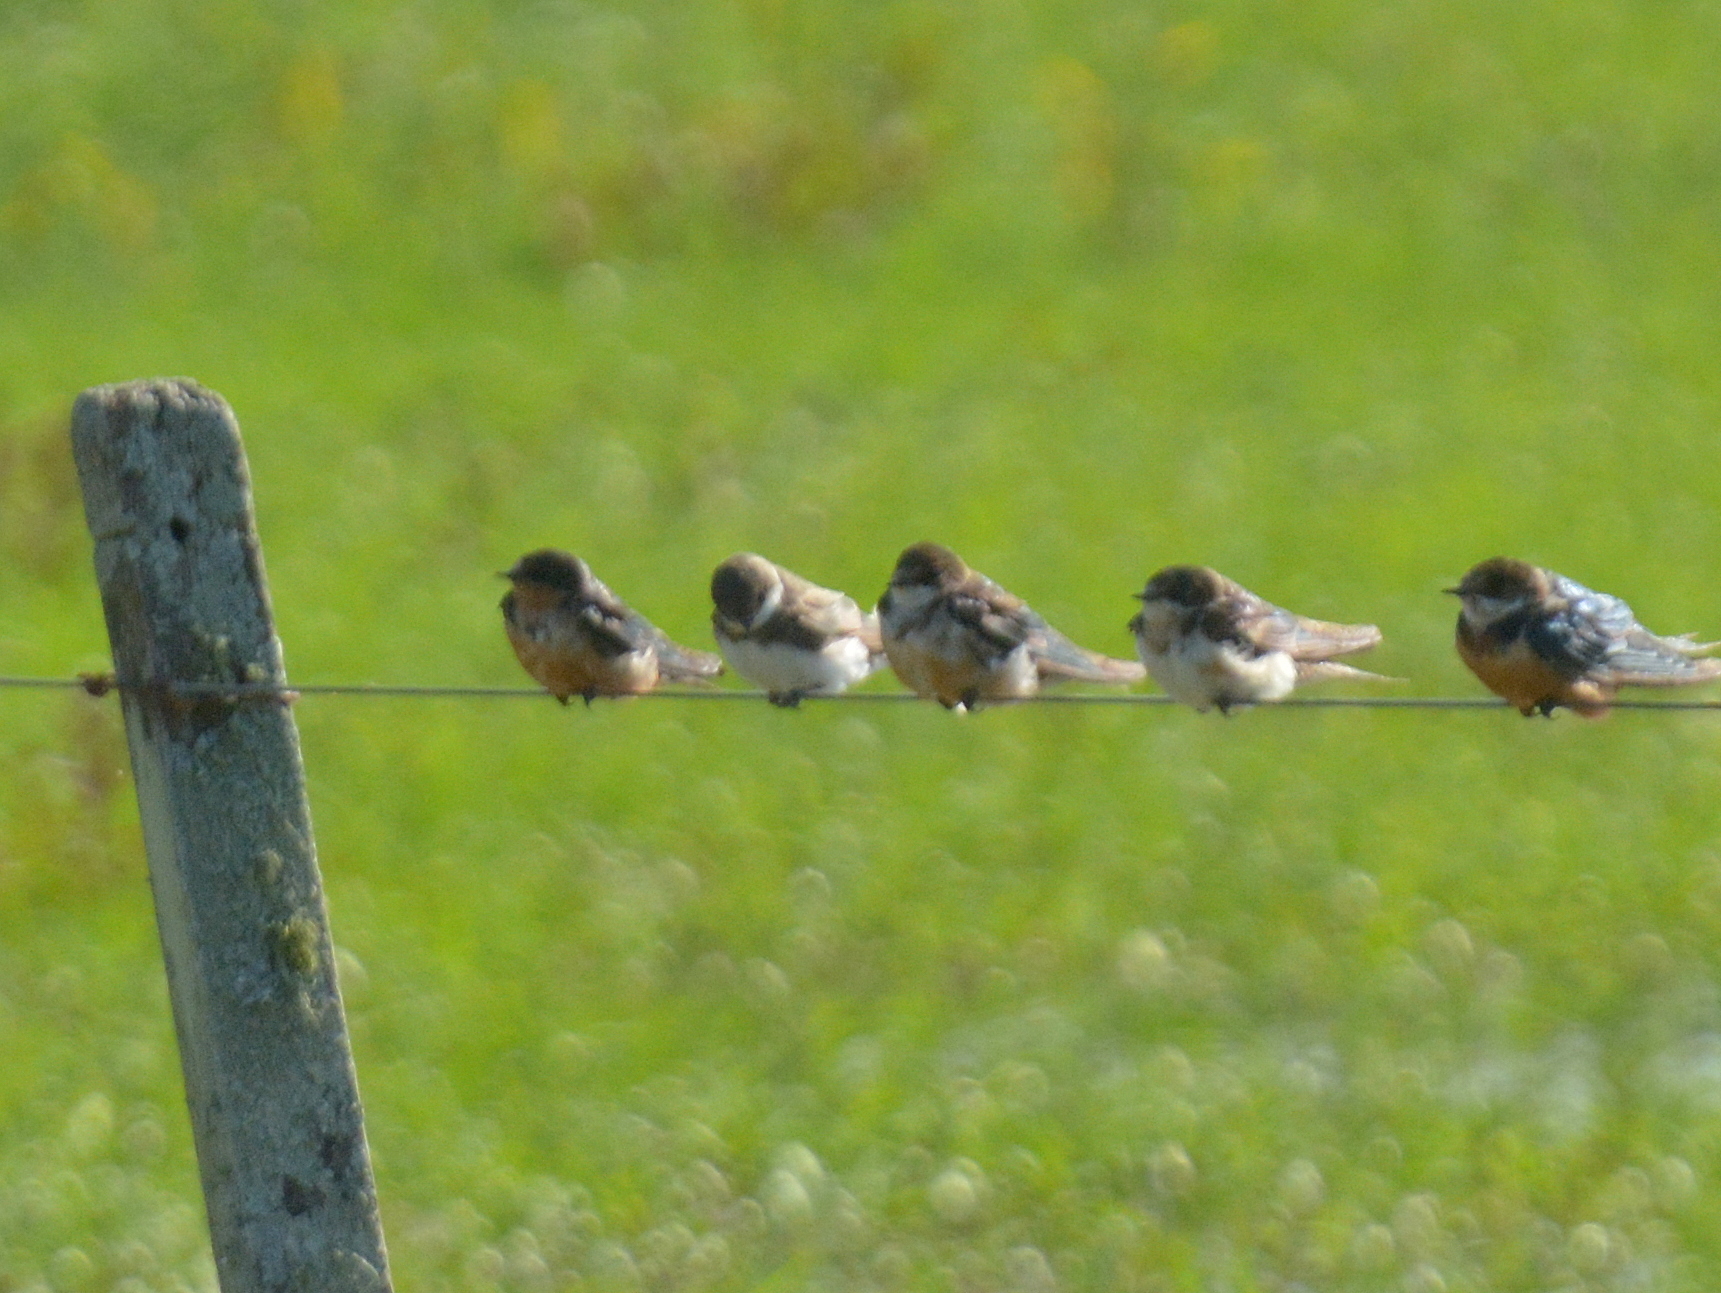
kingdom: Animalia
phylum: Chordata
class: Aves
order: Passeriformes
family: Hirundinidae
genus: Riparia
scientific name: Riparia riparia
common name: Sand martin
